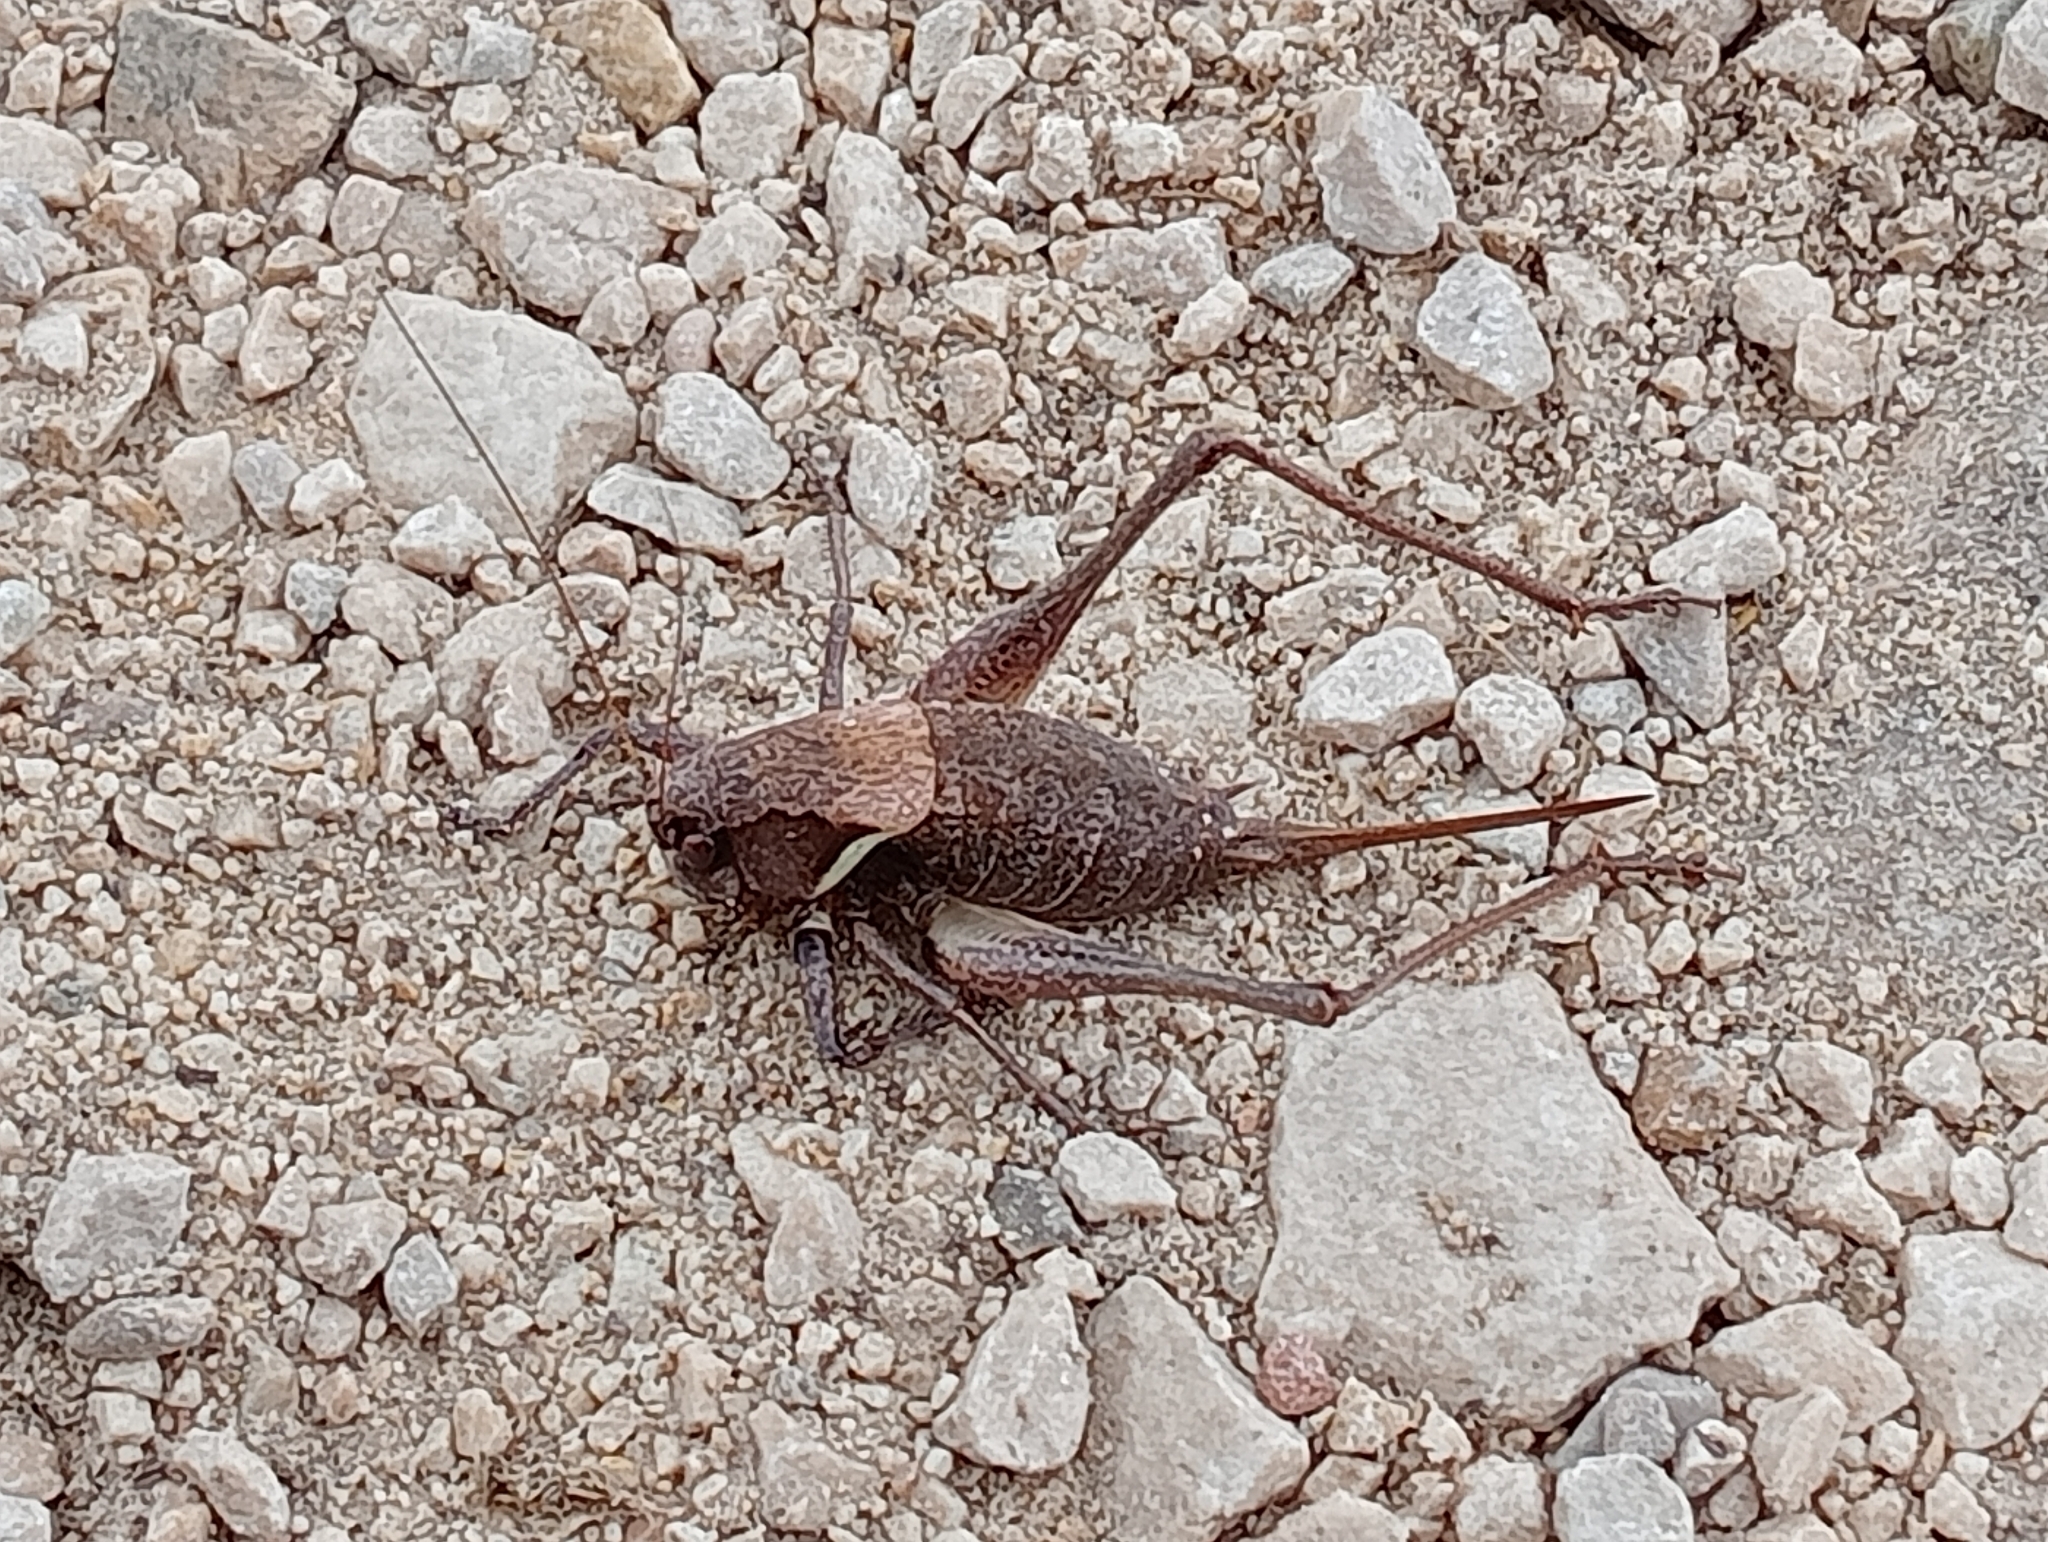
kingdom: Animalia
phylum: Arthropoda
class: Insecta
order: Orthoptera
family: Tettigoniidae
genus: Pholidoptera
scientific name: Pholidoptera aptera
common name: Alpine dark bush-cricket
